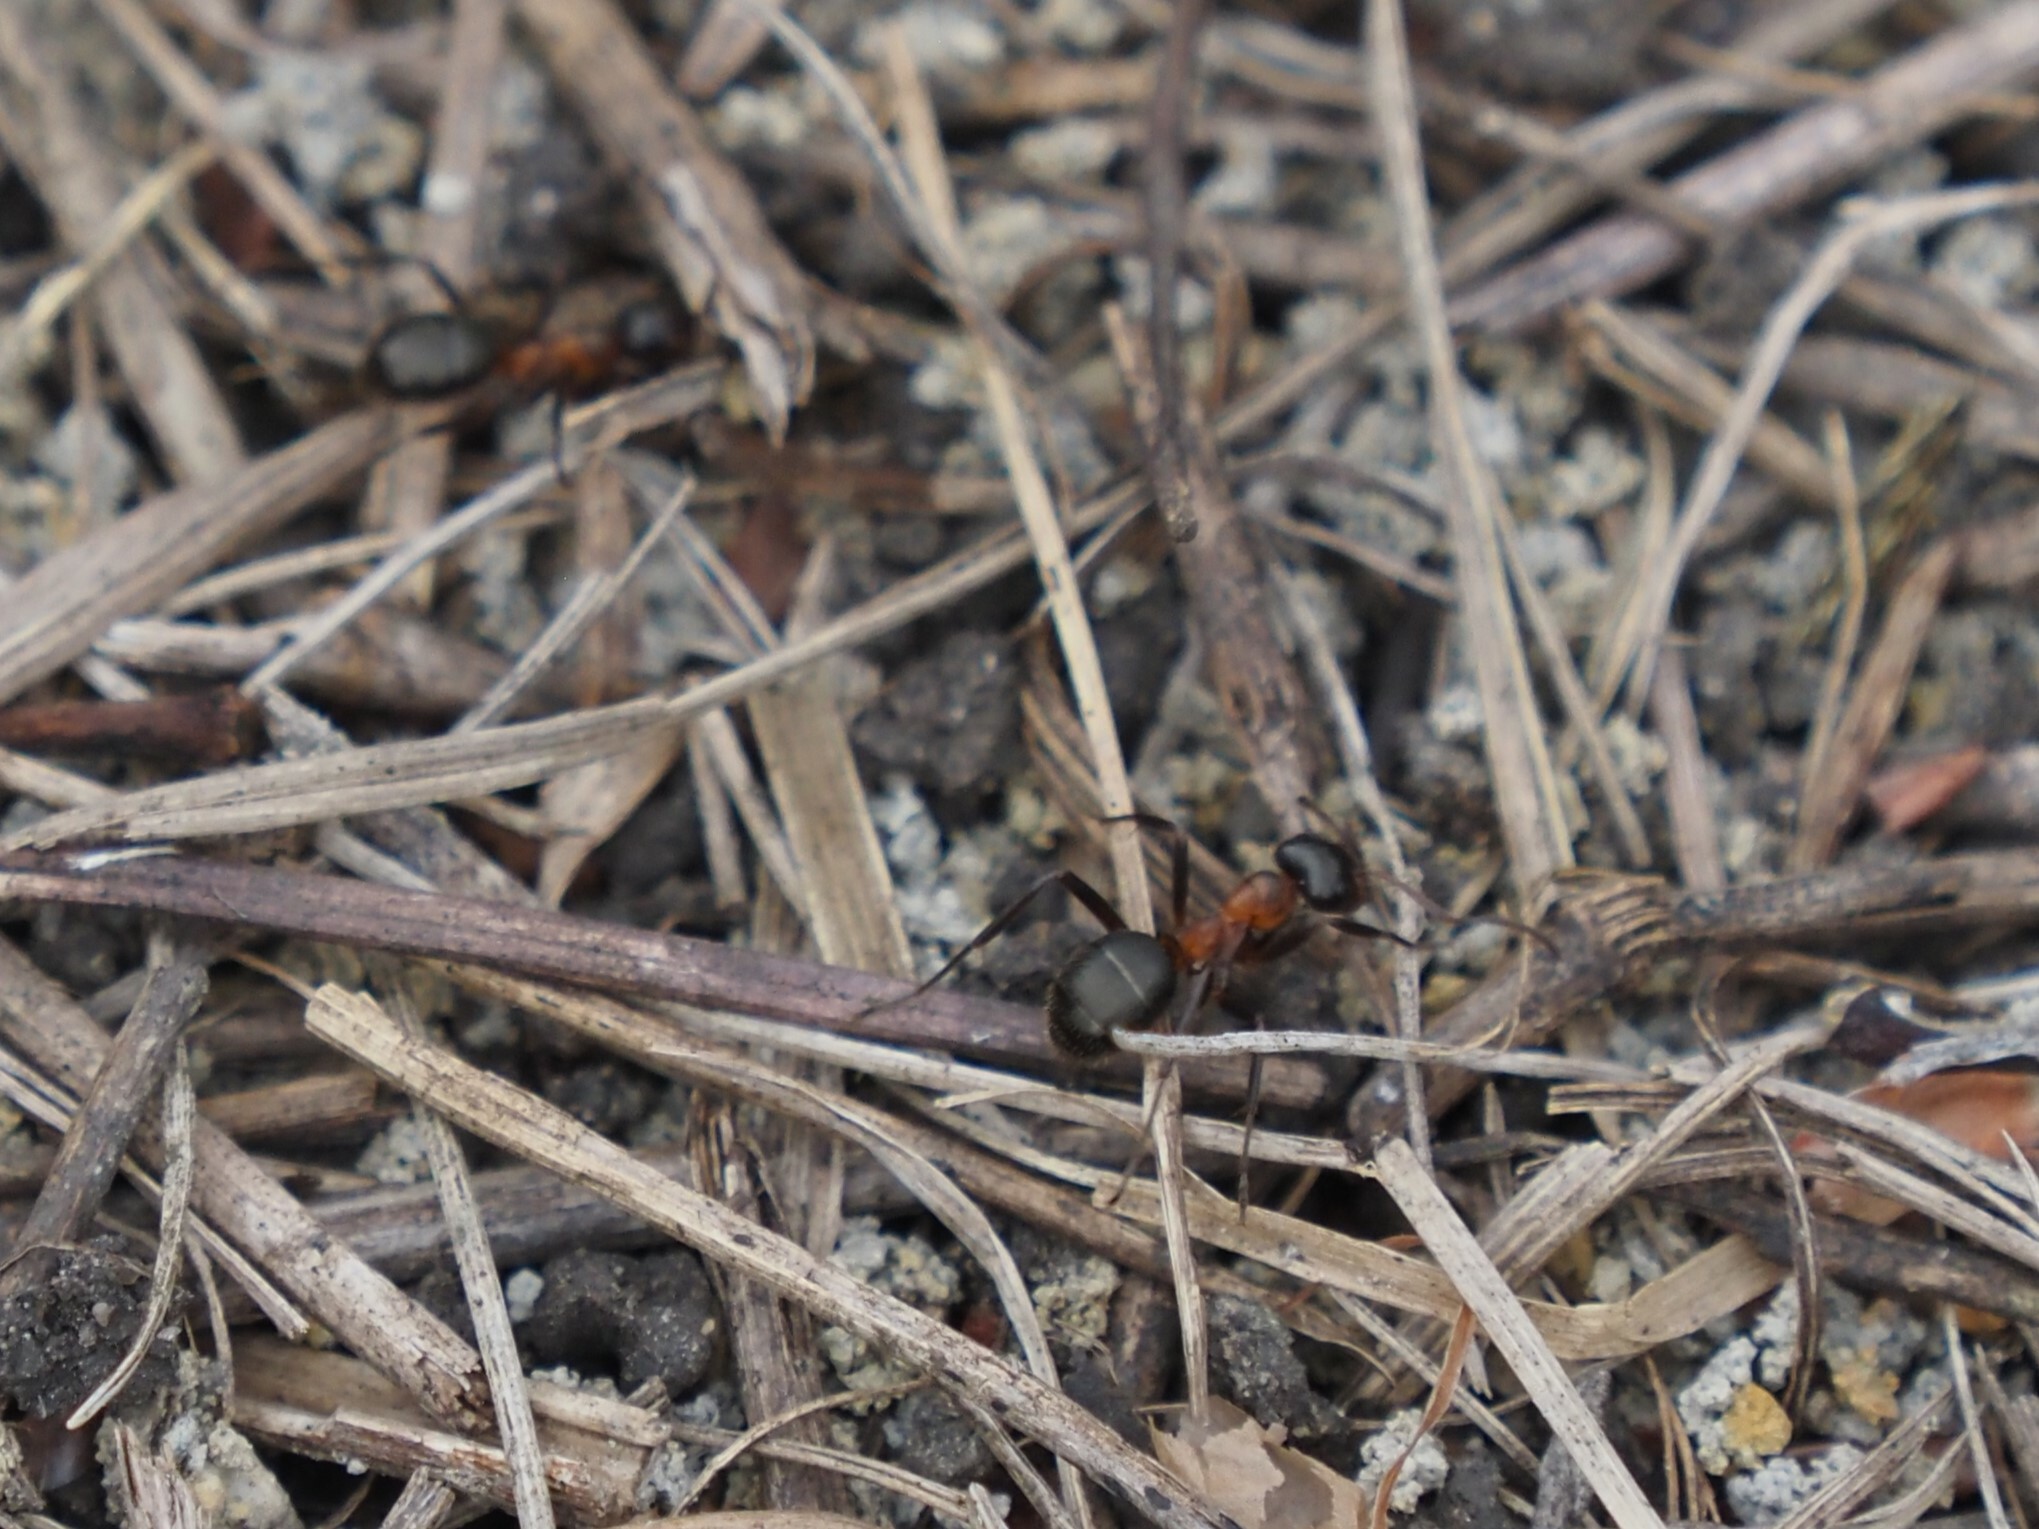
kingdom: Animalia
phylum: Arthropoda
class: Insecta
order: Hymenoptera
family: Formicidae
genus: Formica
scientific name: Formica ulkei
